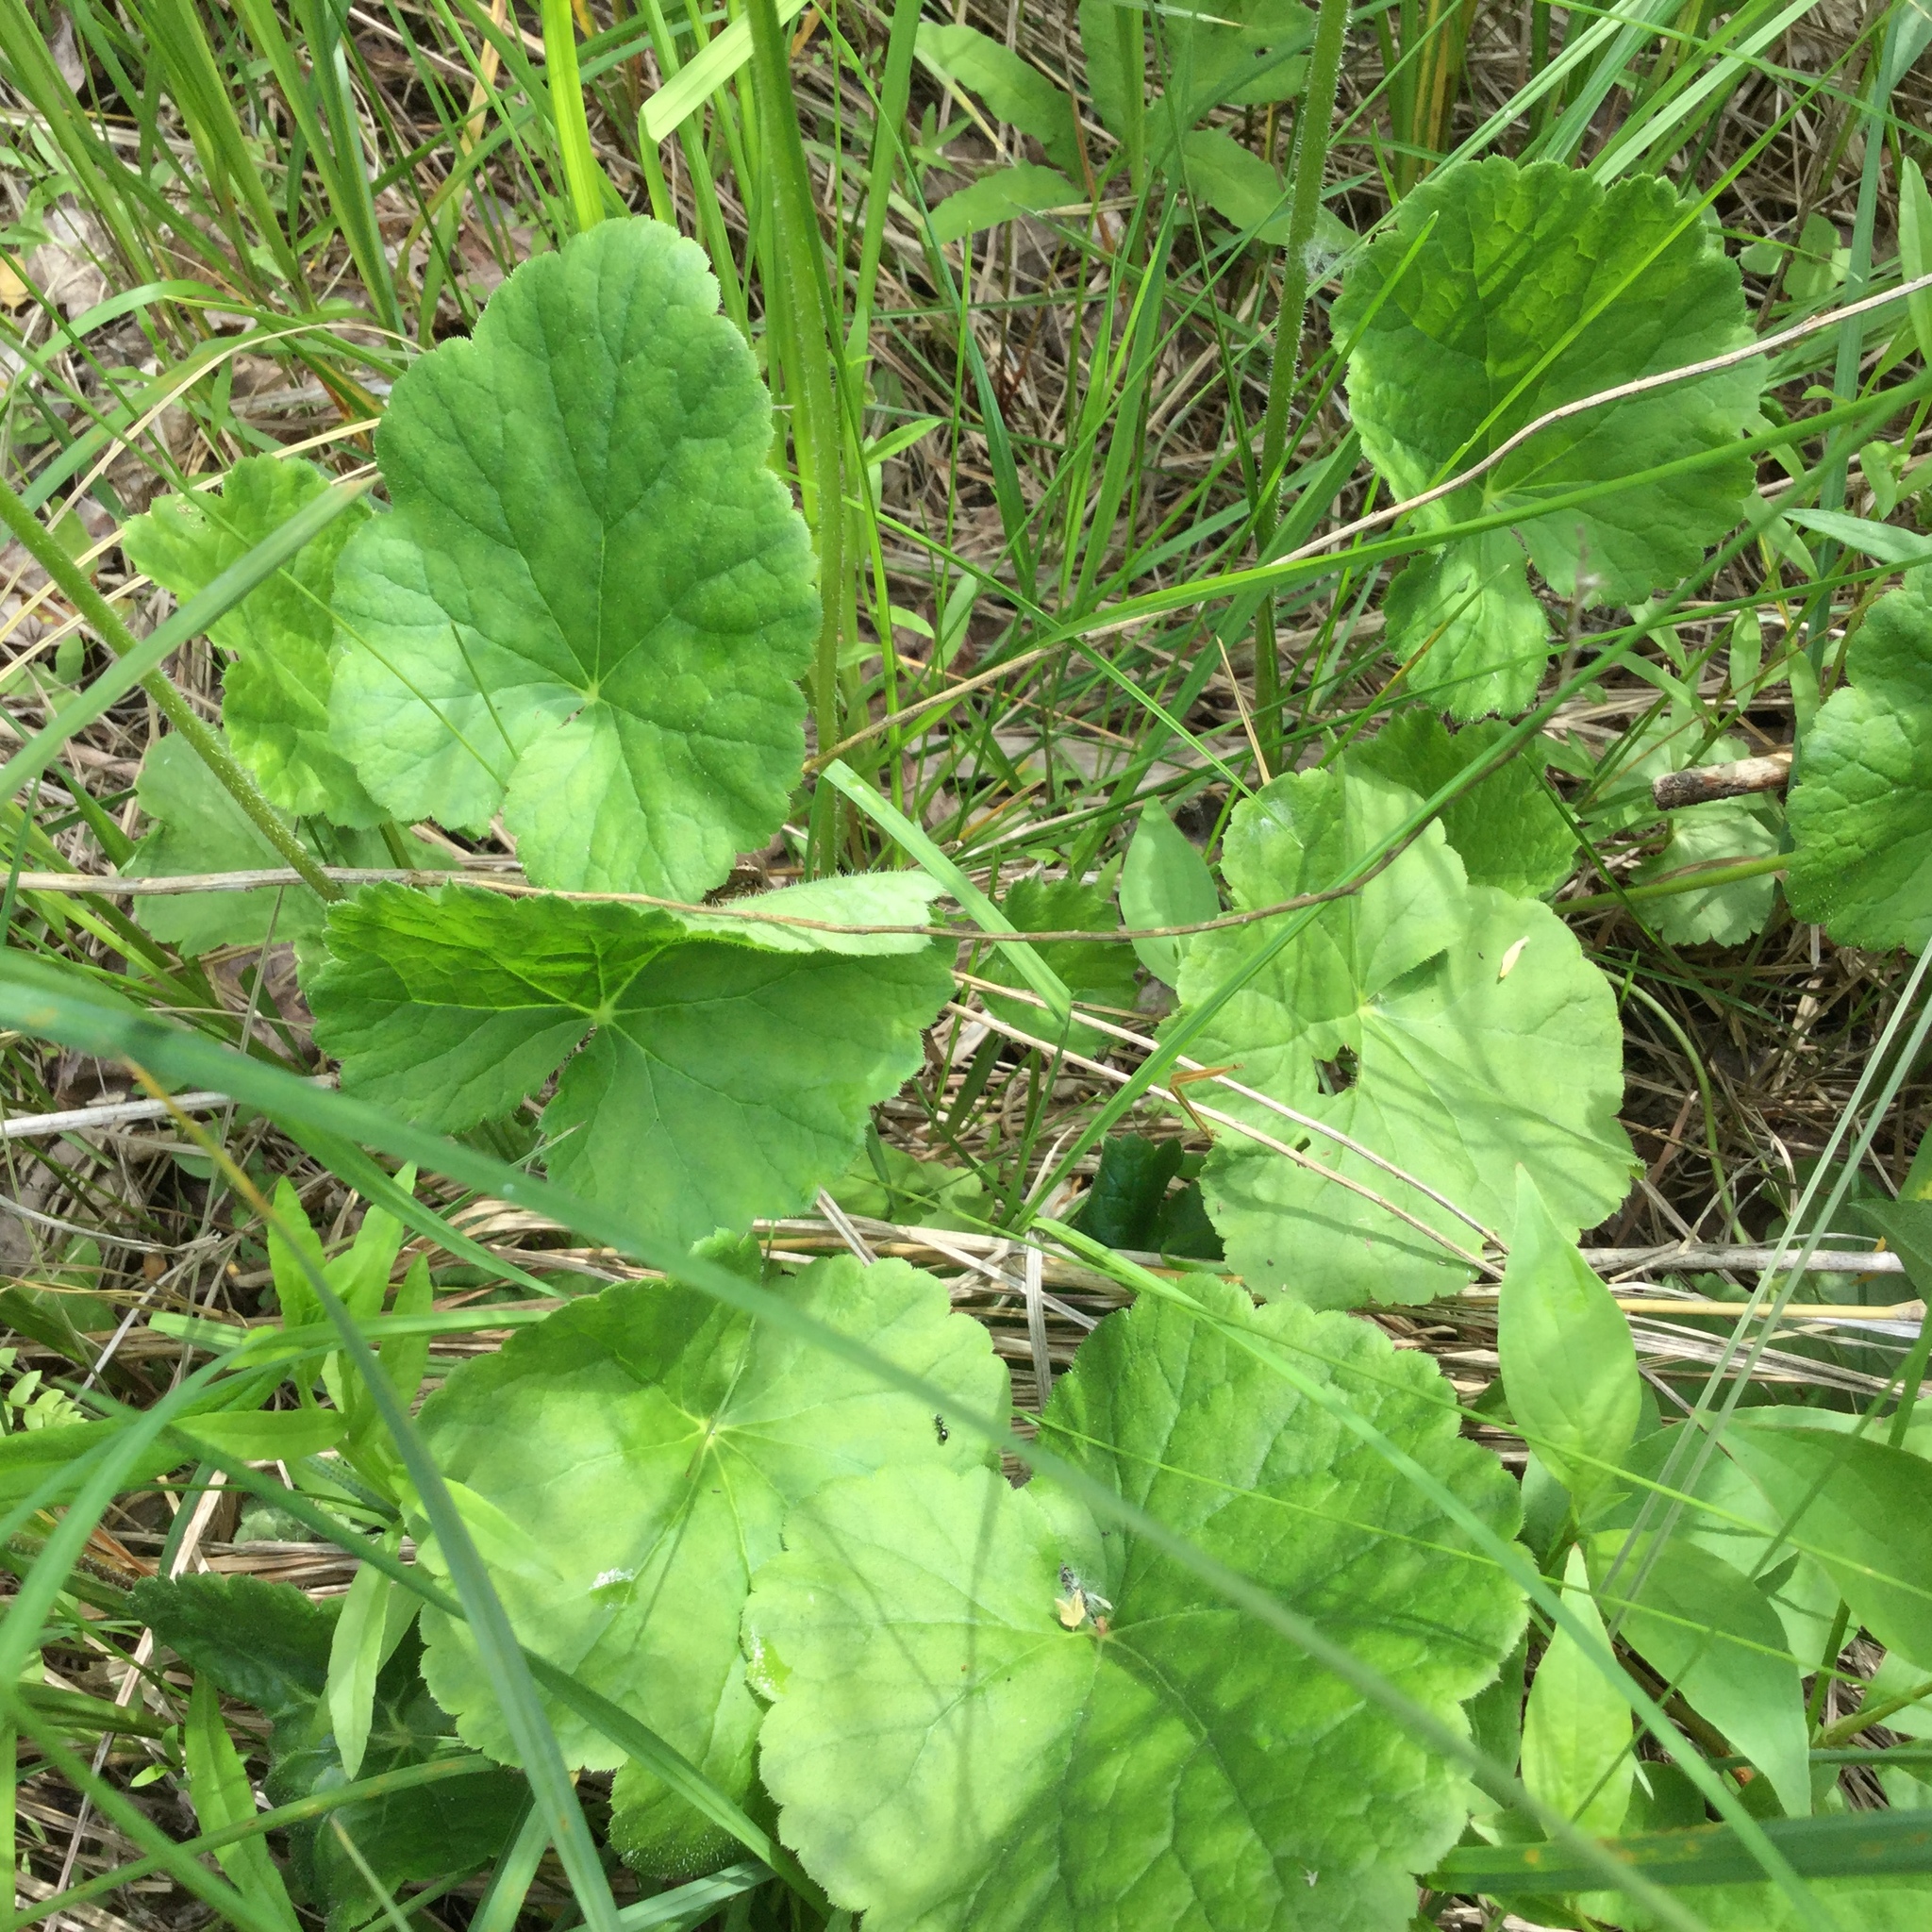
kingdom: Plantae
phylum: Tracheophyta
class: Magnoliopsida
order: Saxifragales
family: Saxifragaceae
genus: Heuchera
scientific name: Heuchera americana
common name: Alumroot
